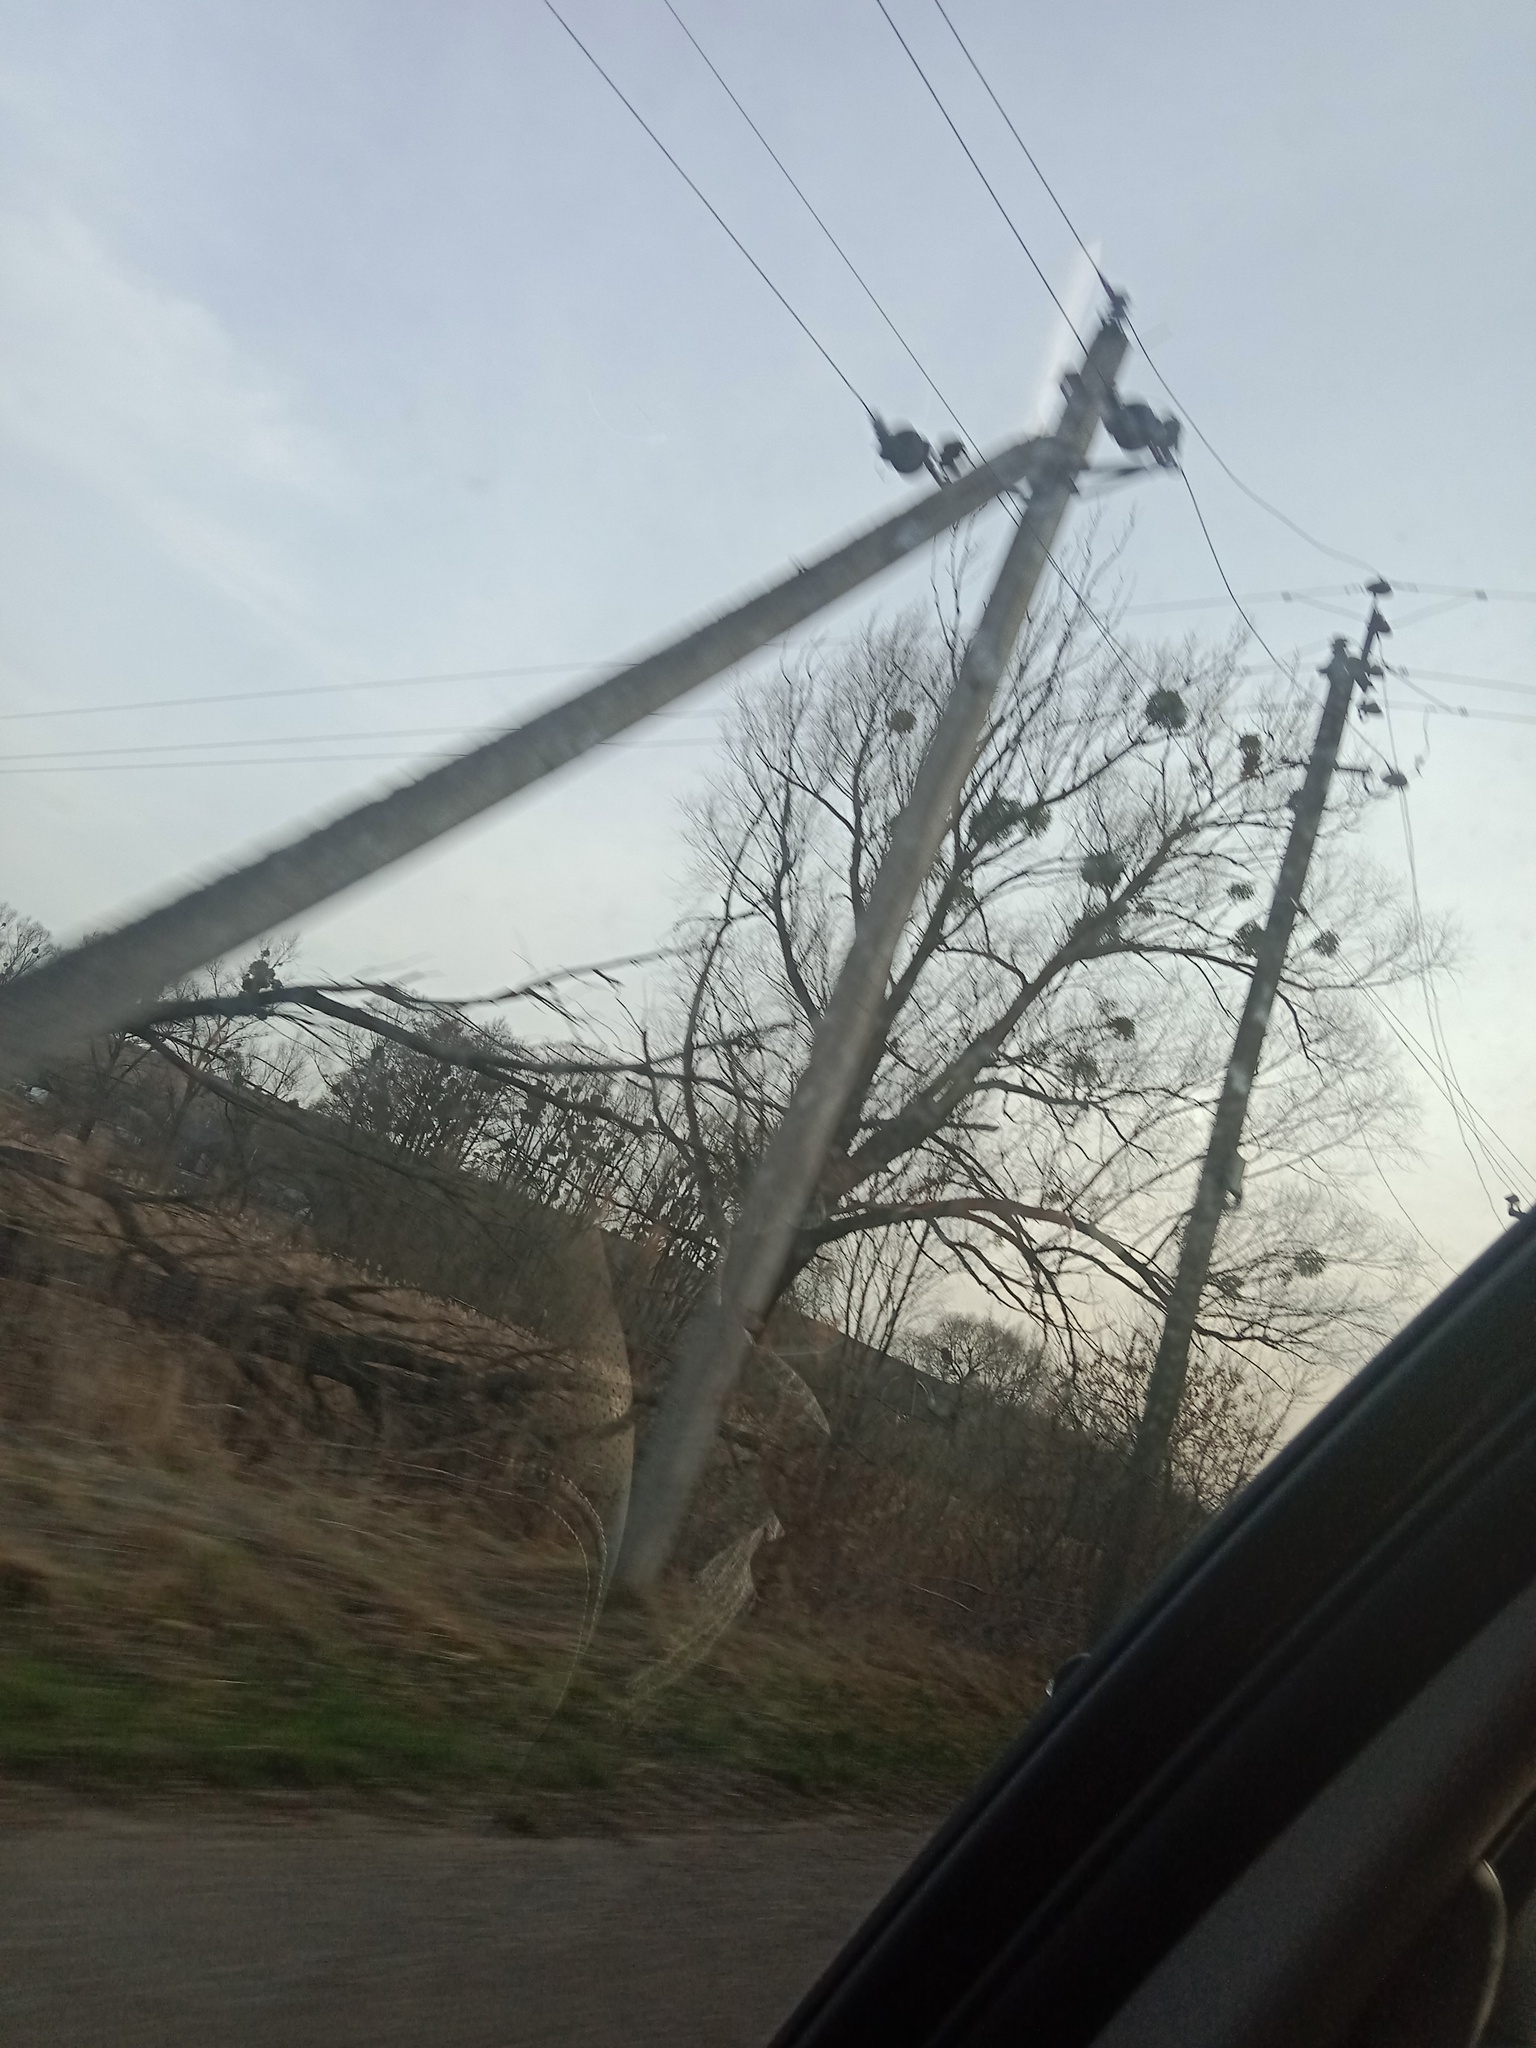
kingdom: Plantae
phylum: Tracheophyta
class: Magnoliopsida
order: Santalales
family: Viscaceae
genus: Viscum
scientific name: Viscum album
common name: Mistletoe
